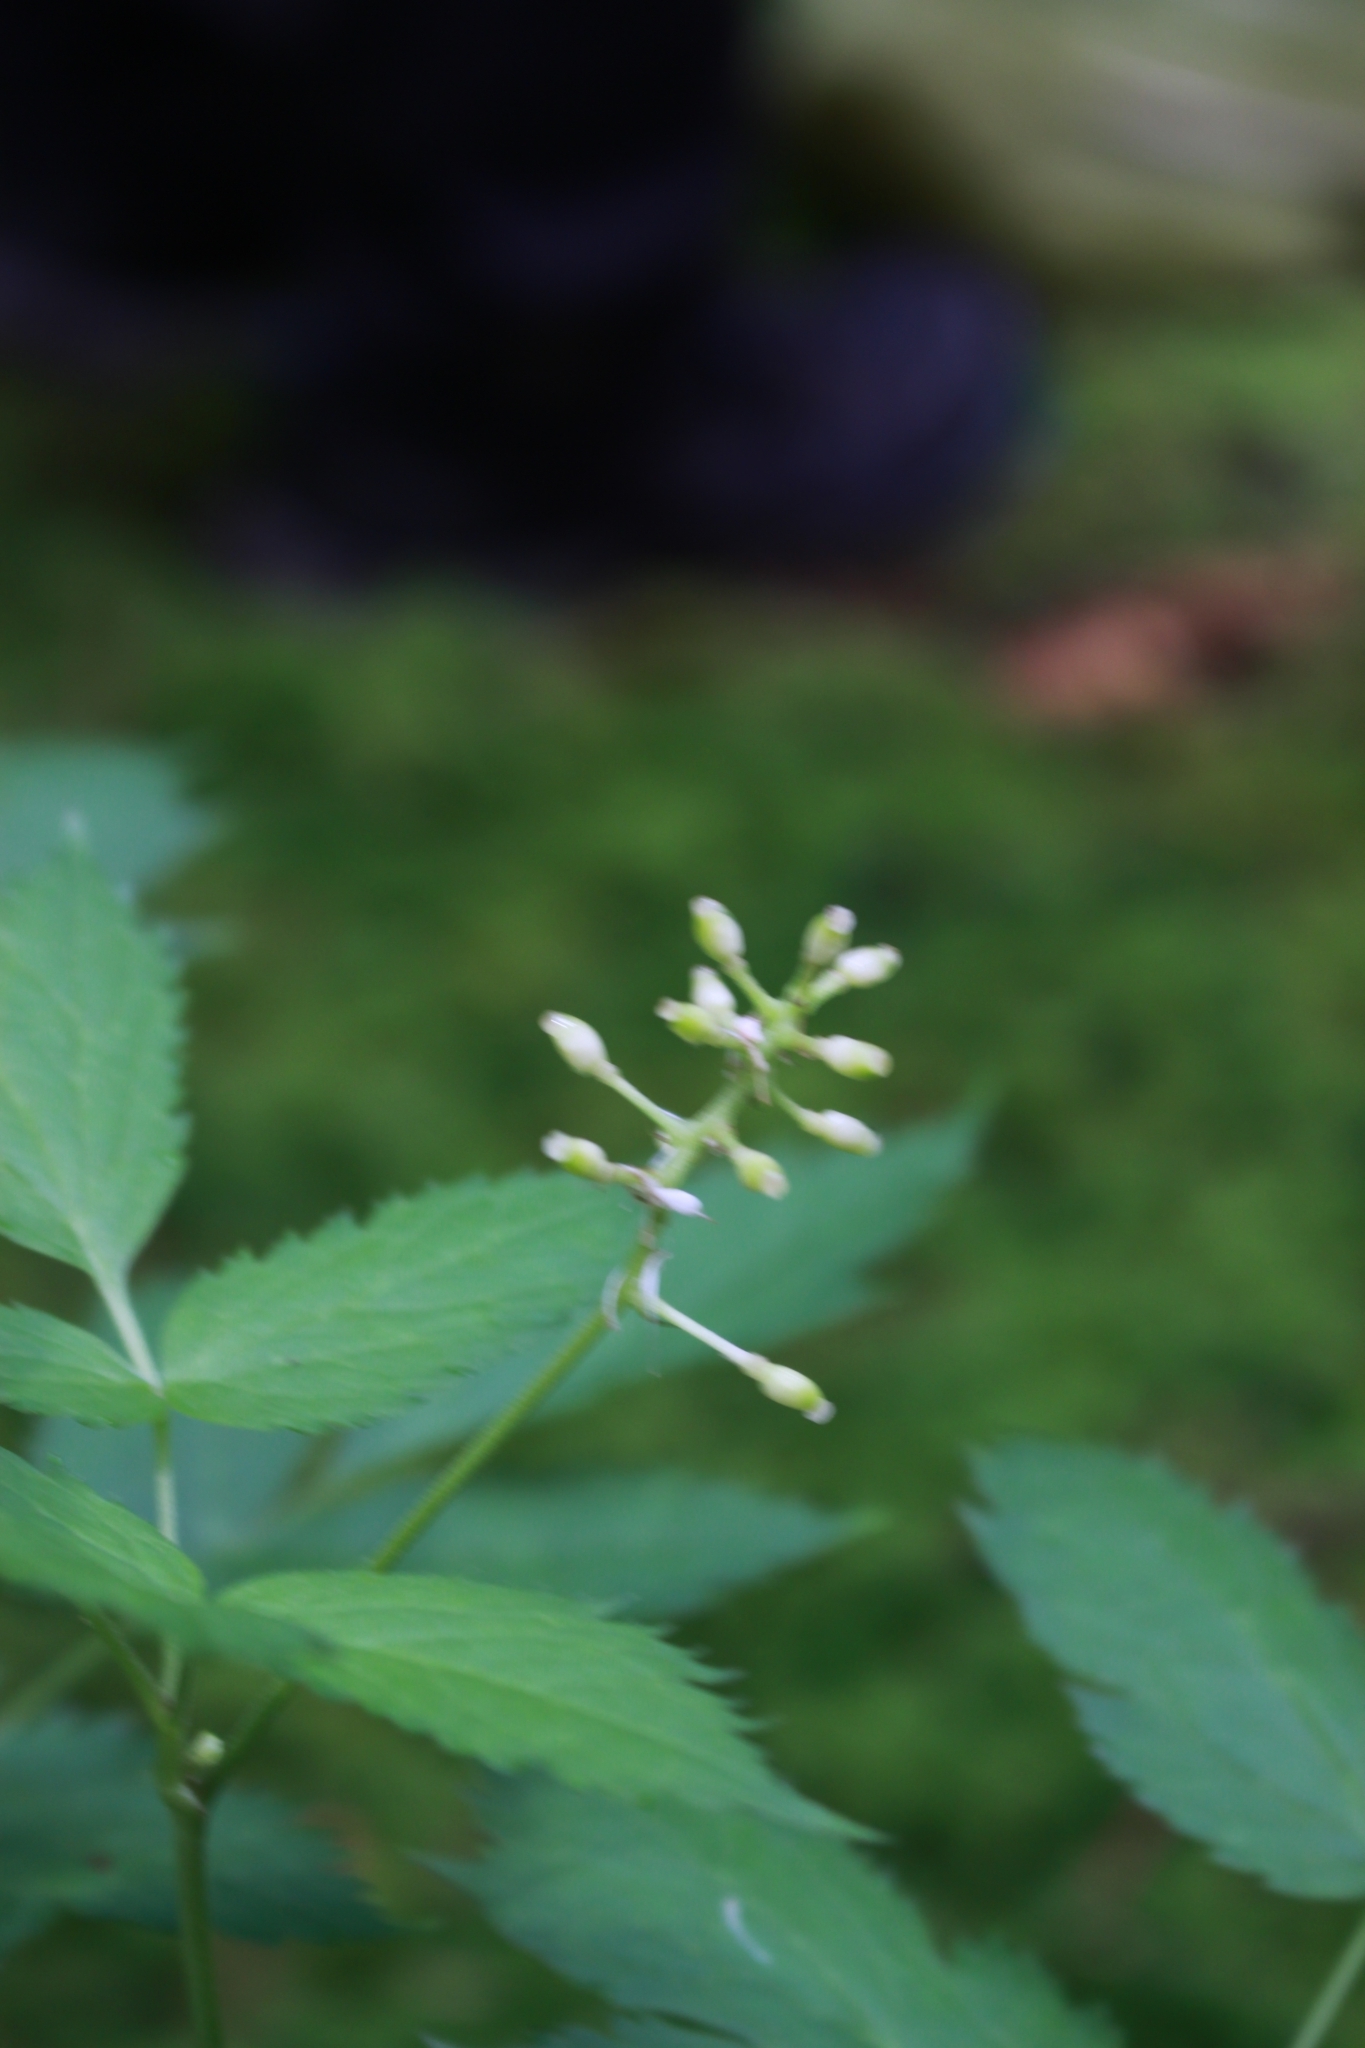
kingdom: Plantae
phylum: Tracheophyta
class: Magnoliopsida
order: Ranunculales
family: Ranunculaceae
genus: Actaea
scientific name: Actaea spicata
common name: Baneberry
